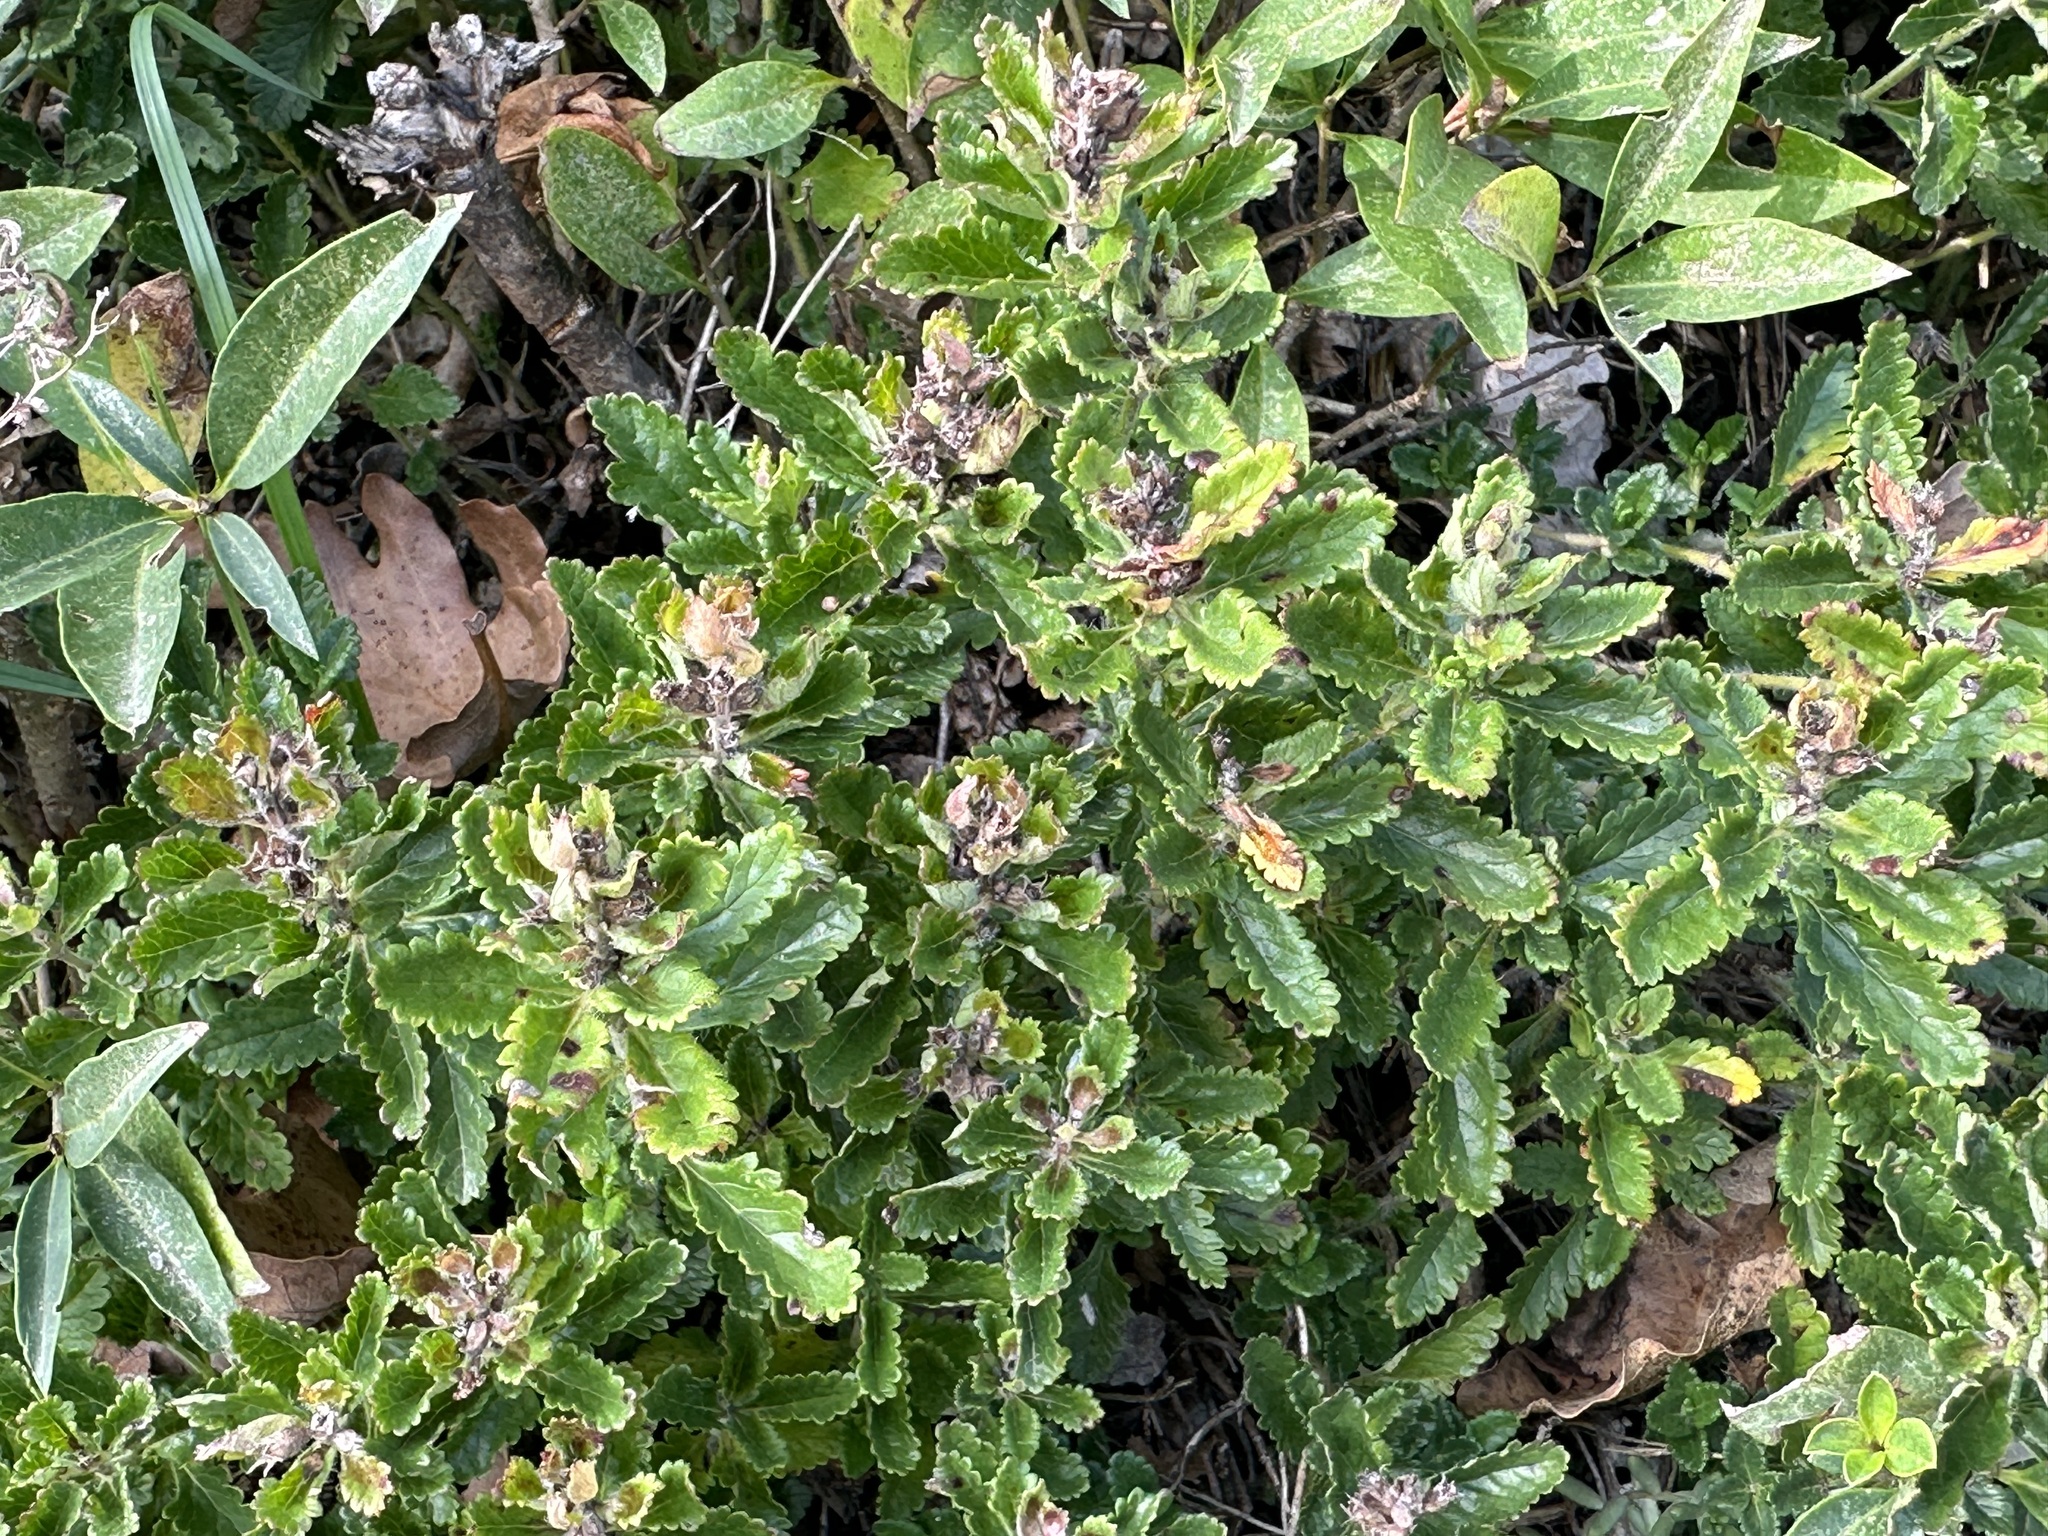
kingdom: Plantae
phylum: Tracheophyta
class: Magnoliopsida
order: Lamiales
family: Lamiaceae
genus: Teucrium
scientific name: Teucrium chamaedrys
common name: Wall germander
